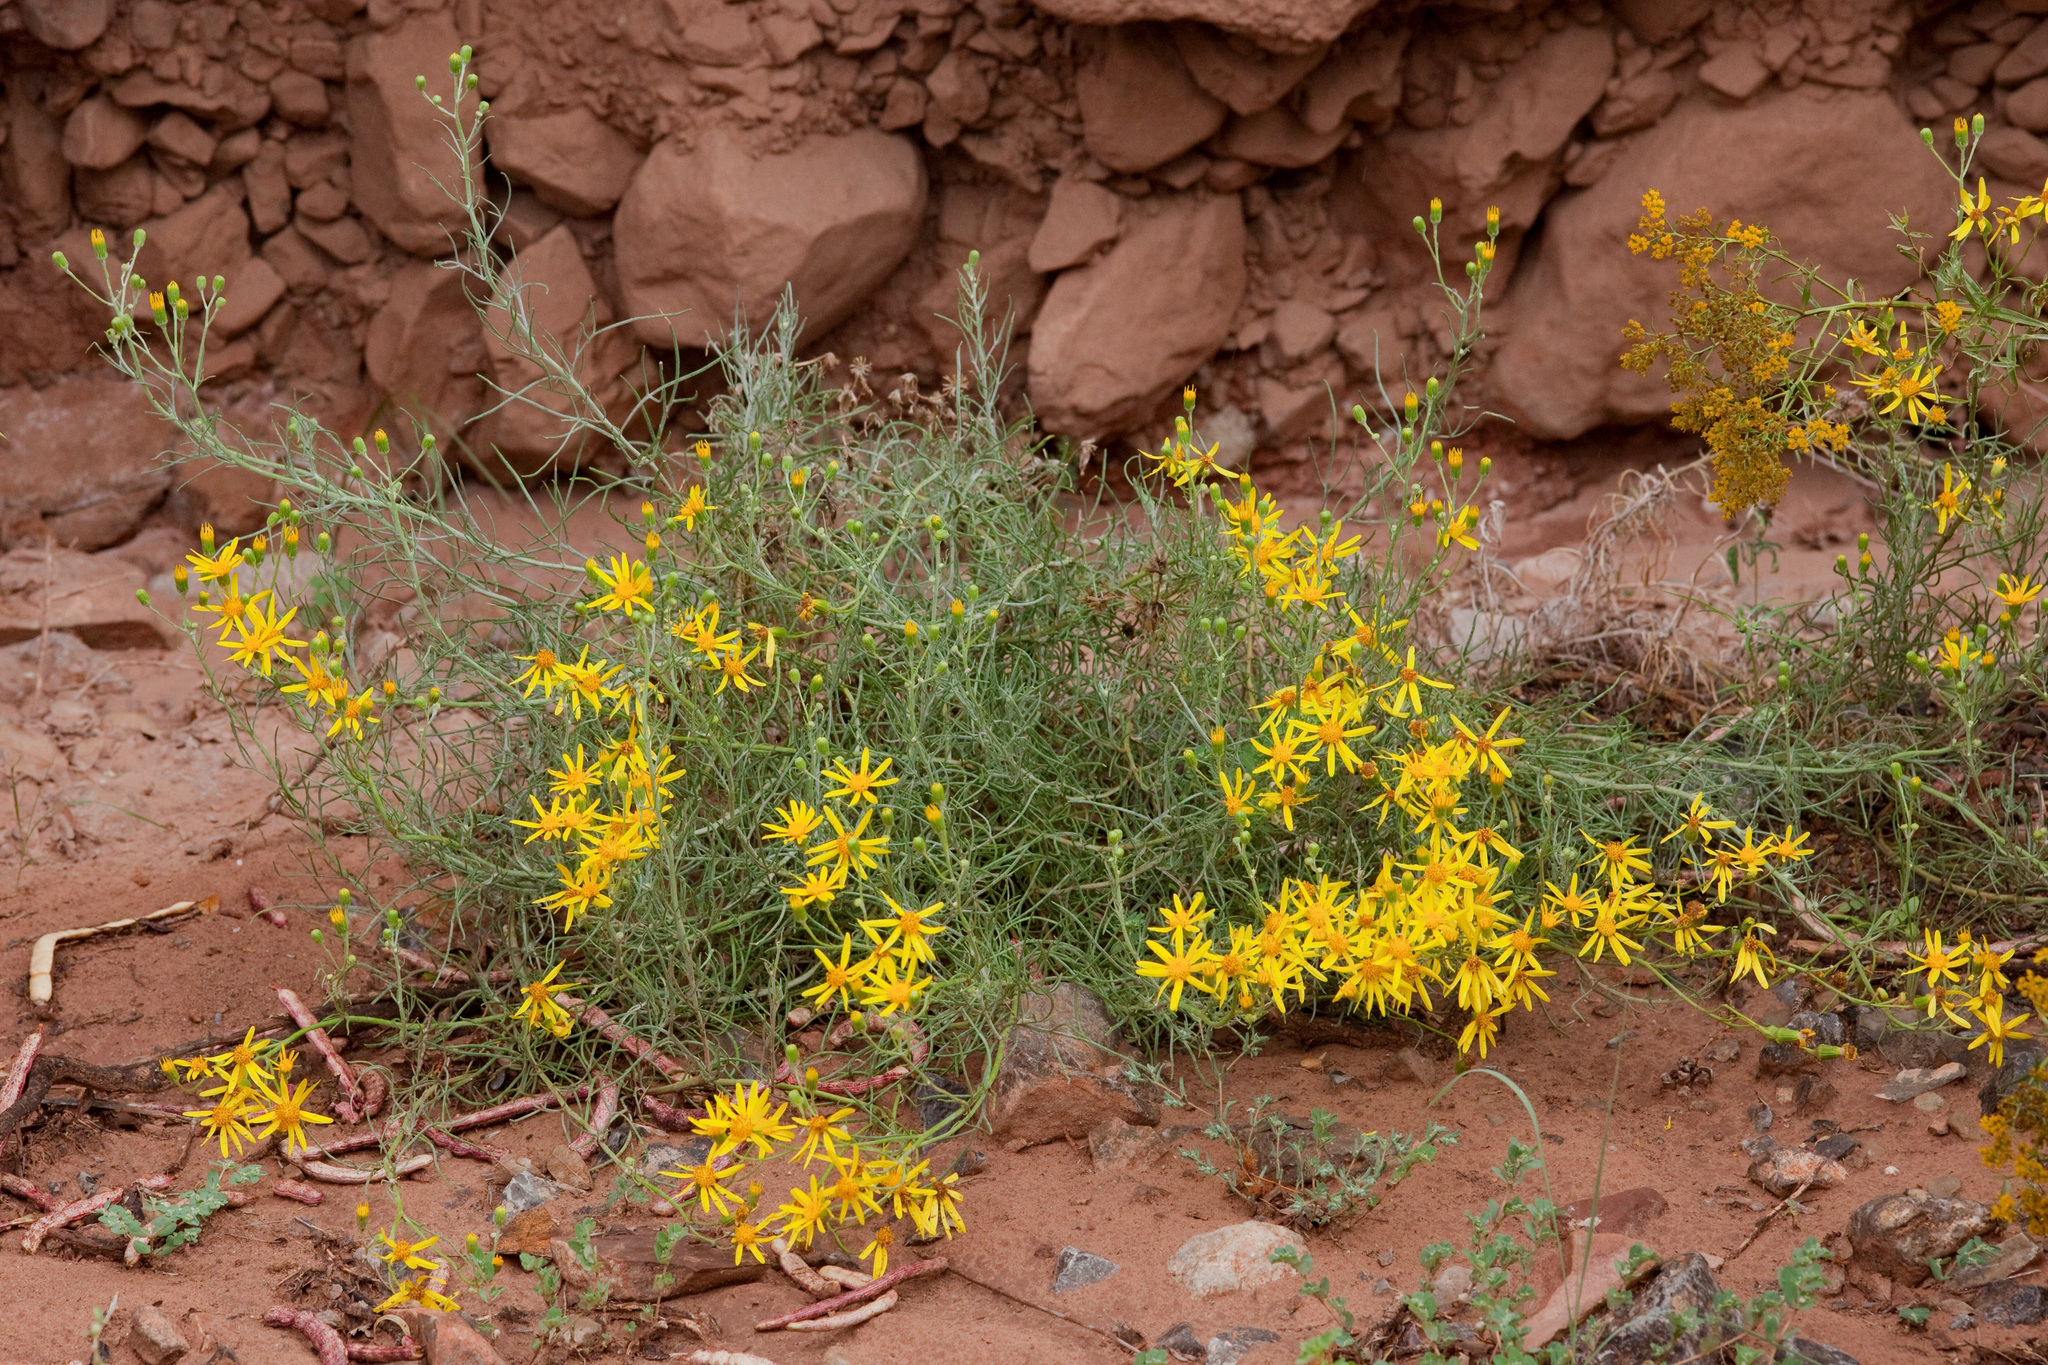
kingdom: Plantae
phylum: Tracheophyta
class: Magnoliopsida
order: Asterales
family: Asteraceae
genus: Senecio
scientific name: Senecio flaccidus
